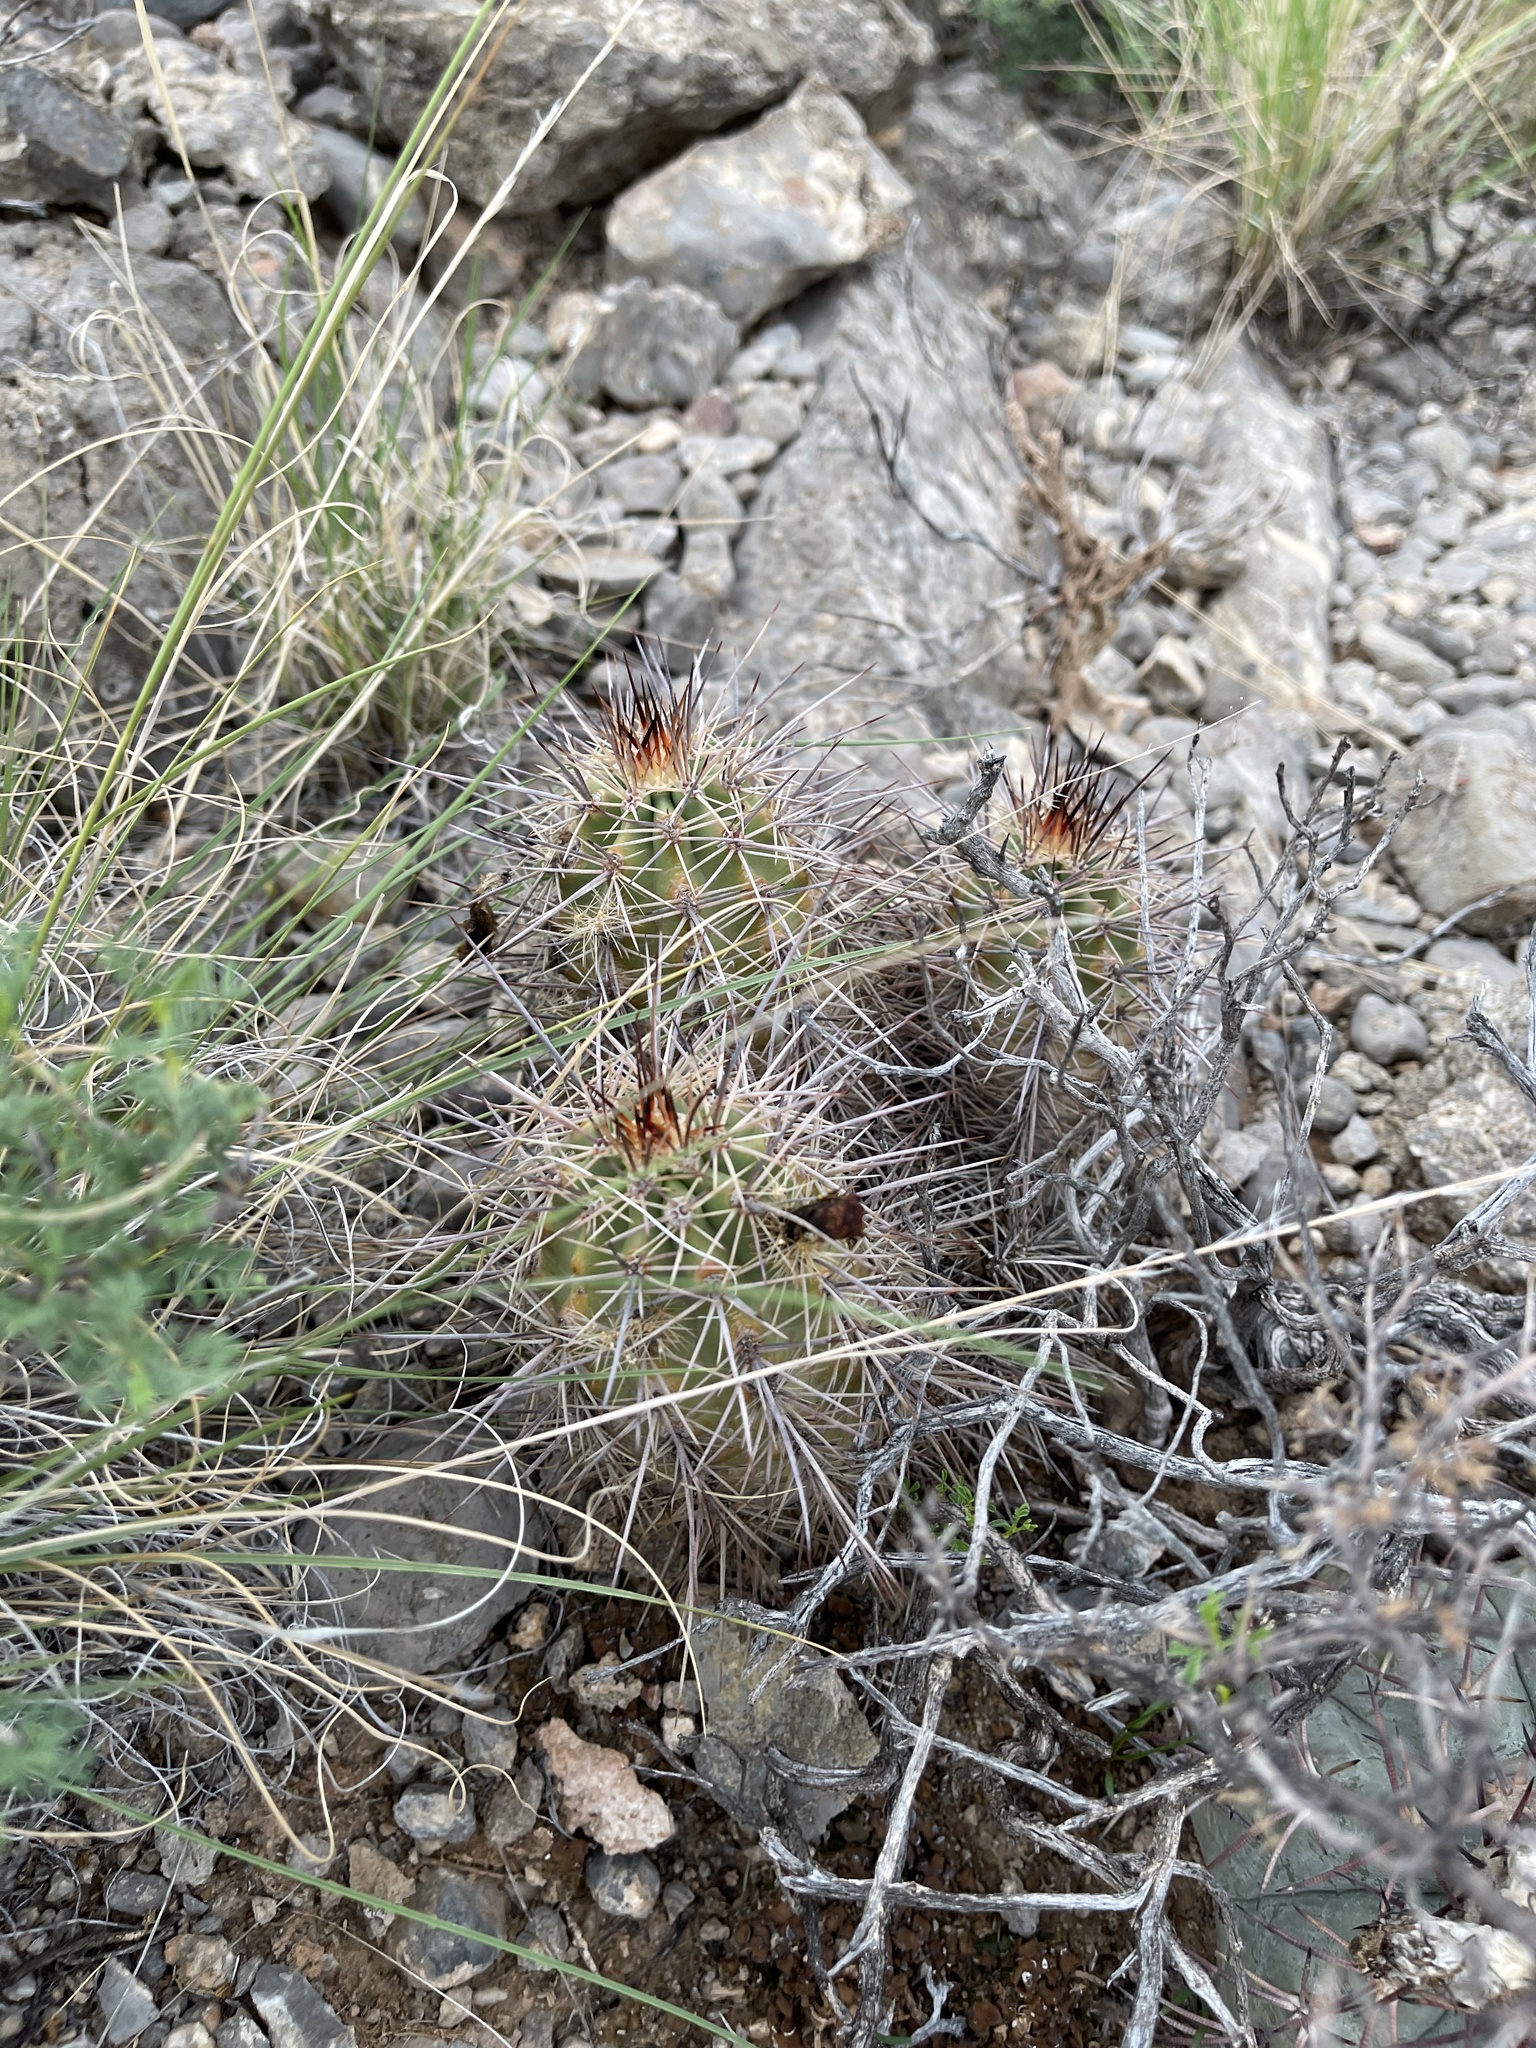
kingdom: Plantae
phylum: Tracheophyta
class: Magnoliopsida
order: Caryophyllales
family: Cactaceae
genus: Echinocereus
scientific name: Echinocereus coccineus
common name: Scarlet hedgehog cactus
